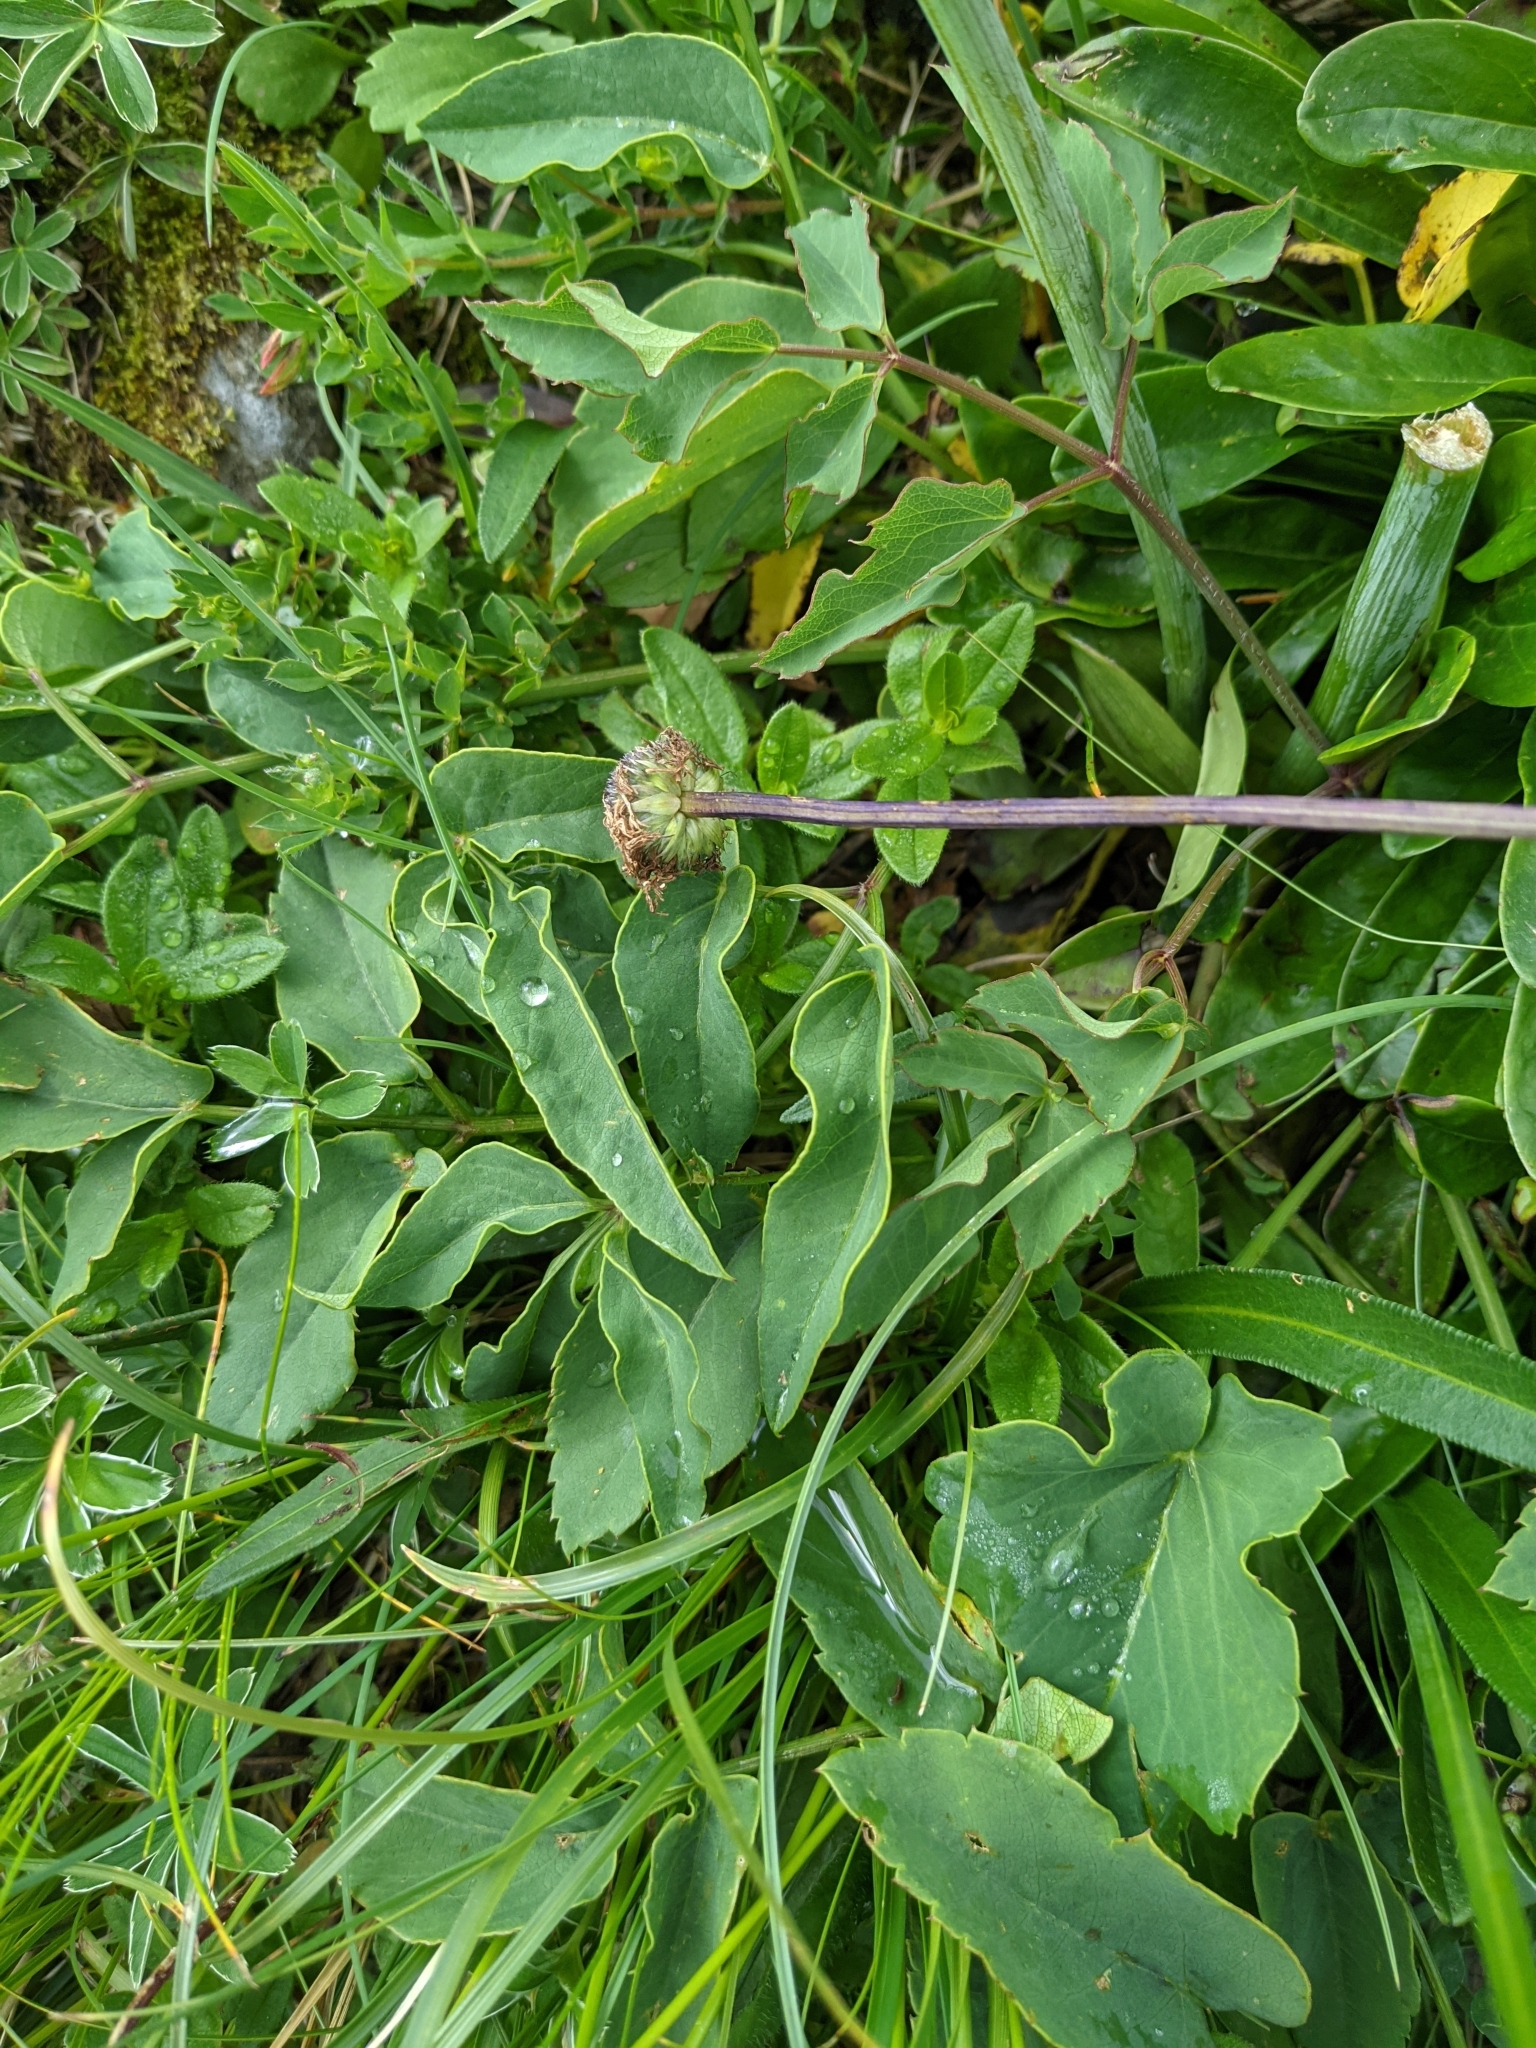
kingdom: Plantae
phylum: Tracheophyta
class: Magnoliopsida
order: Apiales
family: Apiaceae
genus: Laserpitium
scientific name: Laserpitium latifolium
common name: Broadleaf sermountain
